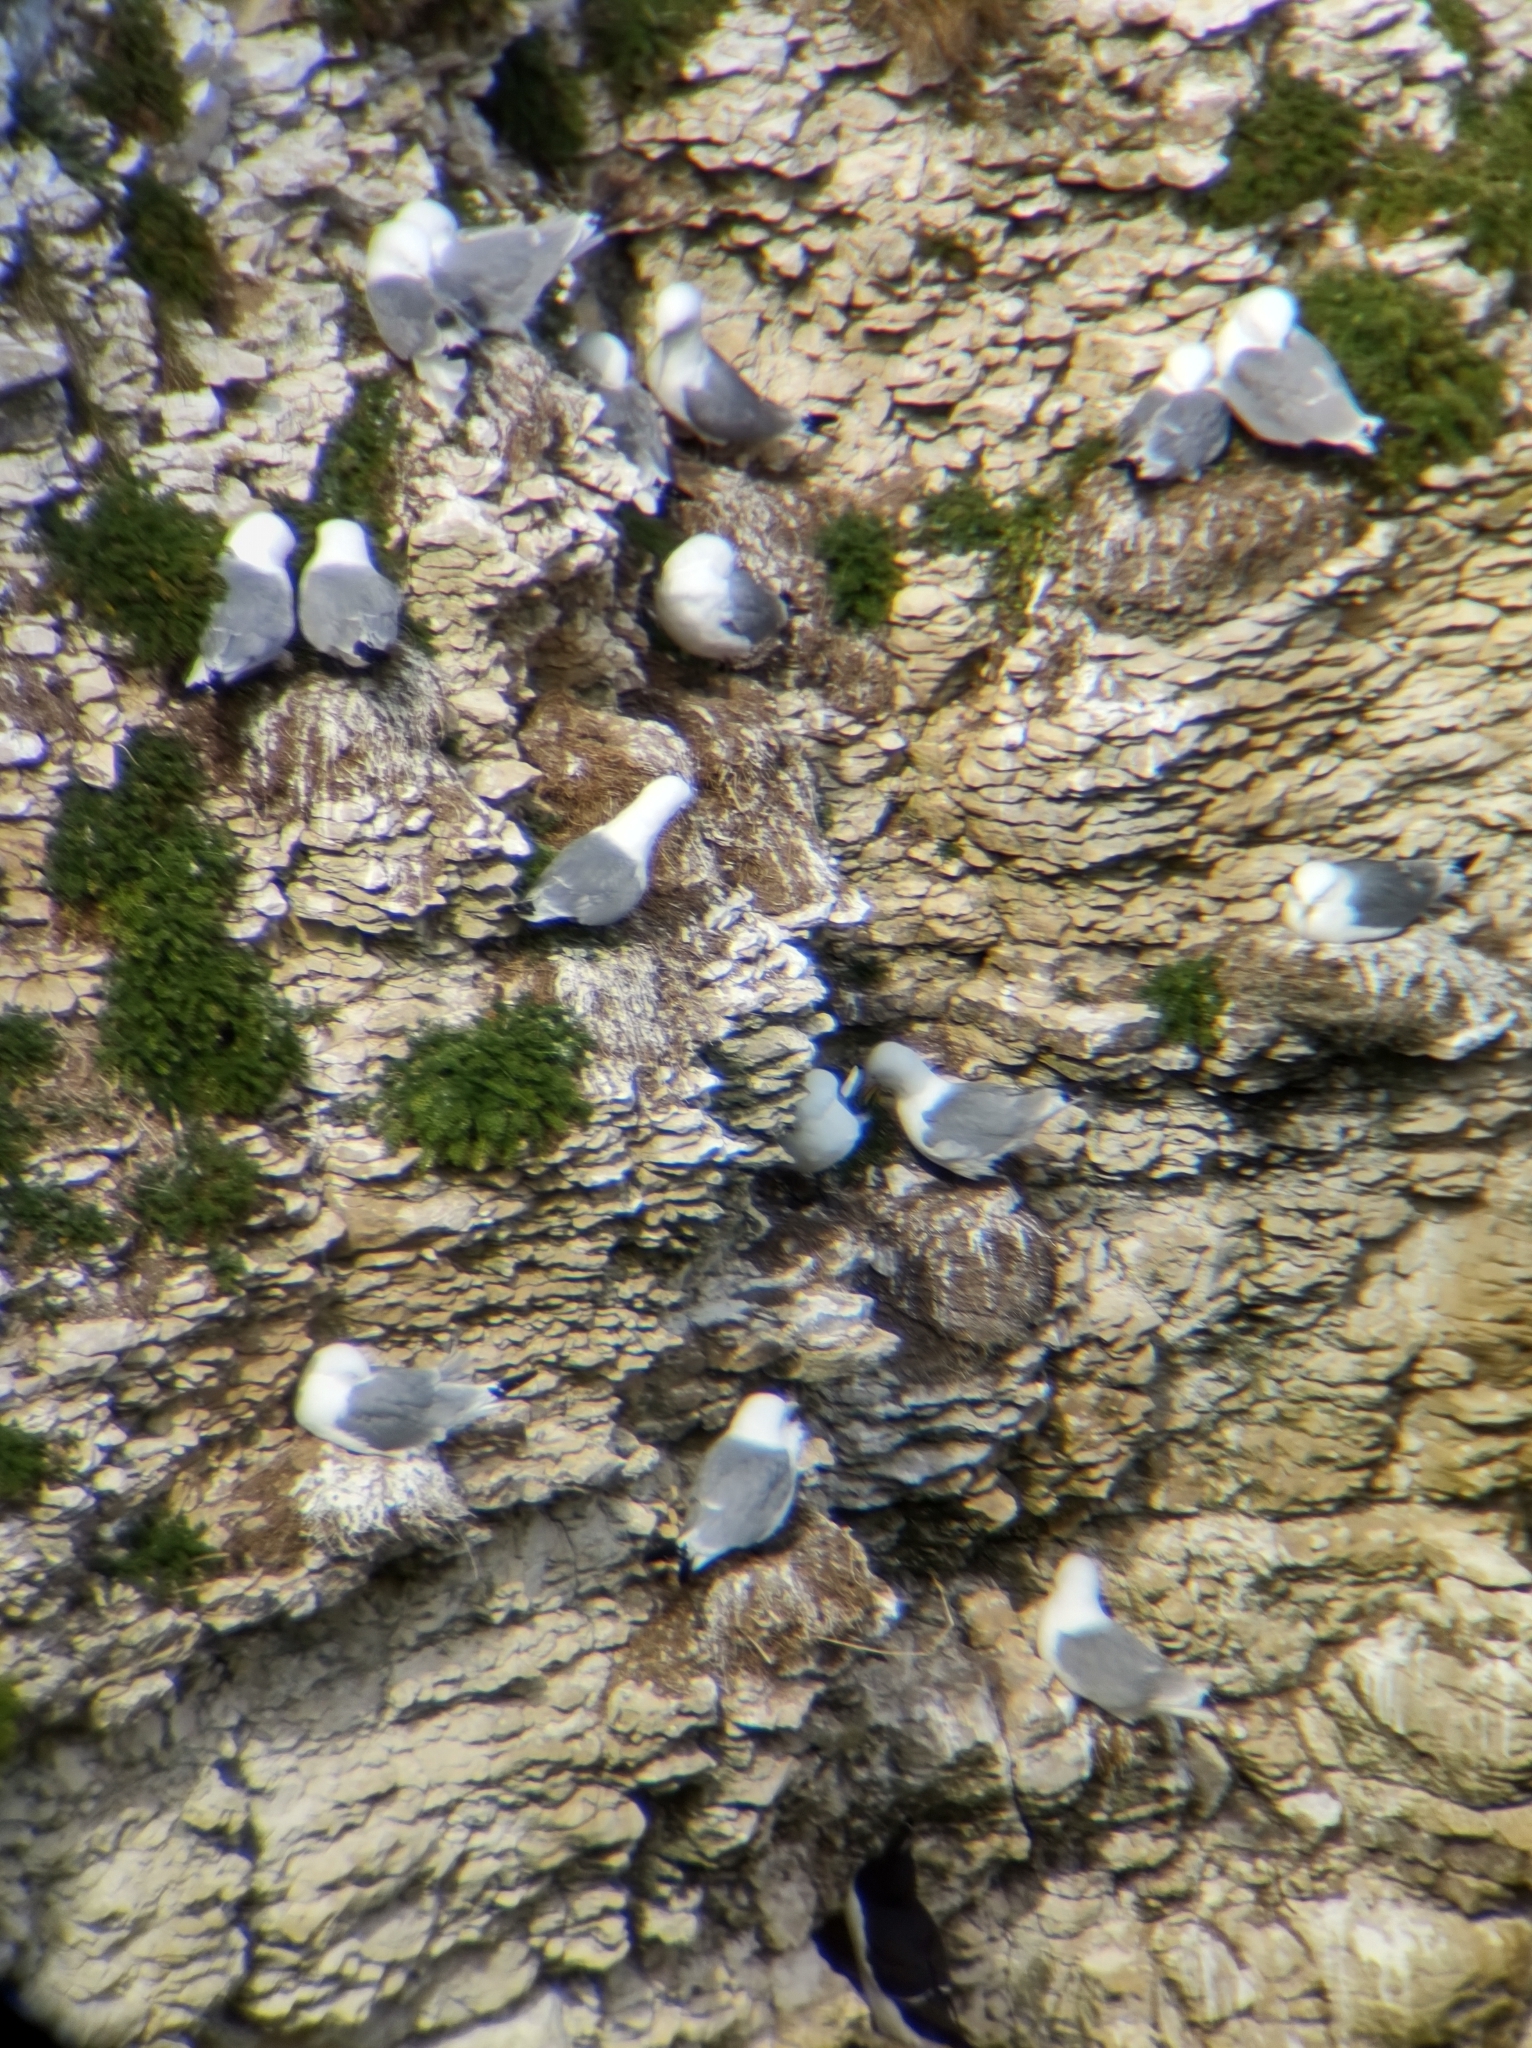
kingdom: Animalia
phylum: Chordata
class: Aves
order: Charadriiformes
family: Laridae
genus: Rissa
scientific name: Rissa tridactyla
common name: Black-legged kittiwake
